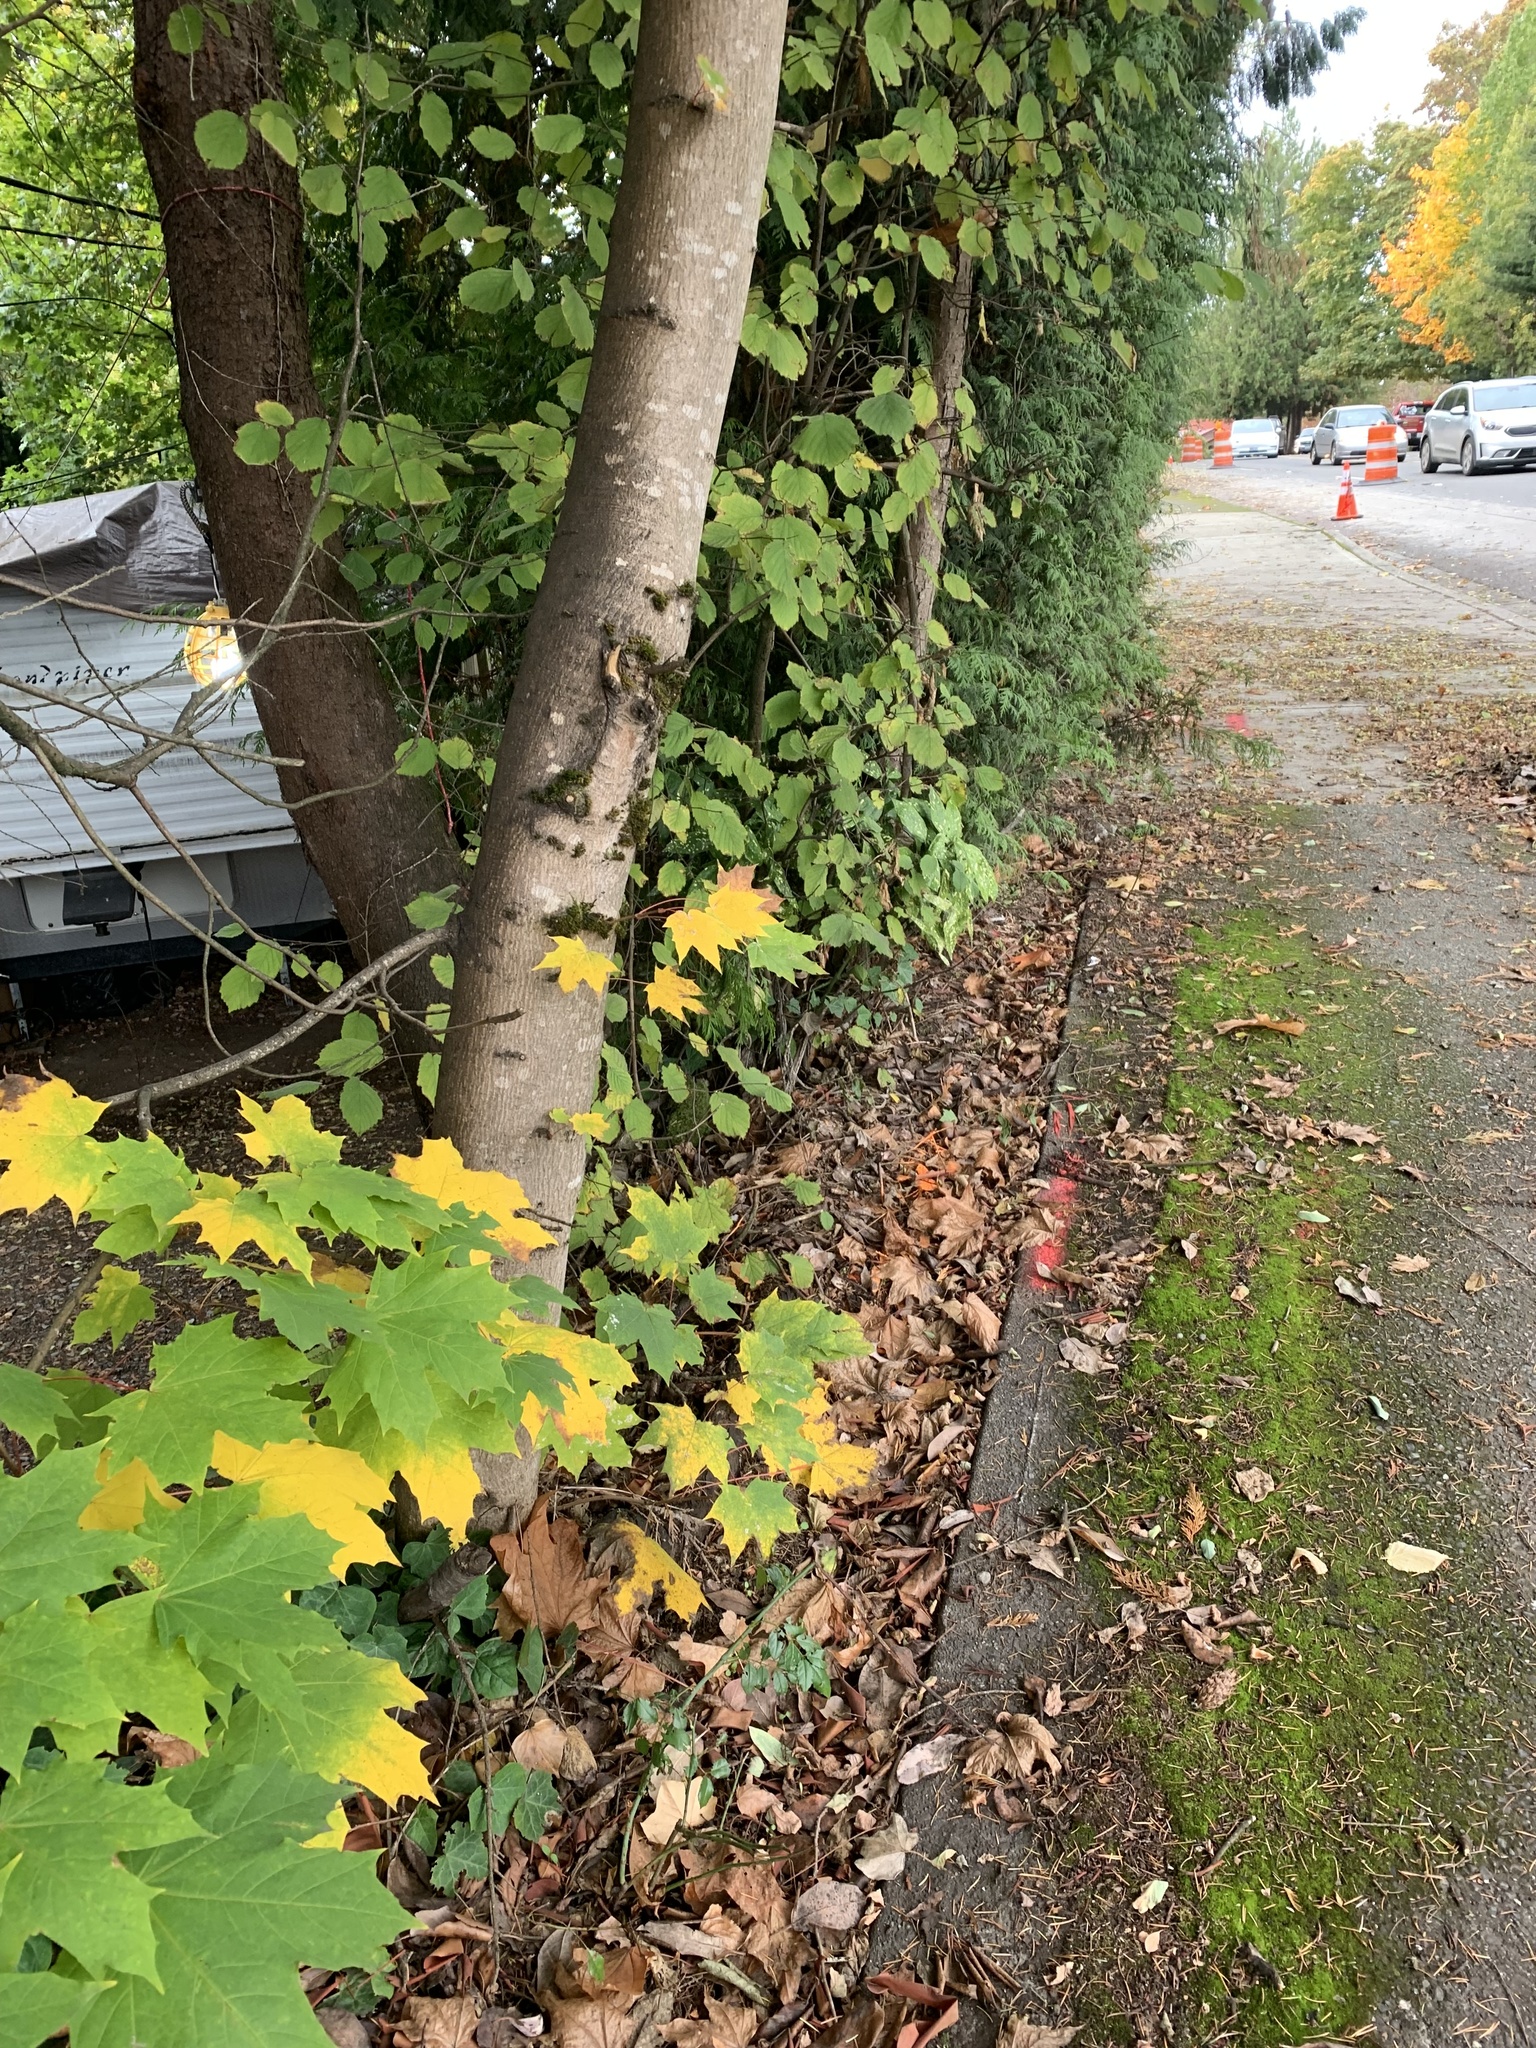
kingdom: Plantae
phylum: Tracheophyta
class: Magnoliopsida
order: Sapindales
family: Sapindaceae
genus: Acer
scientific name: Acer platanoides
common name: Norway maple
